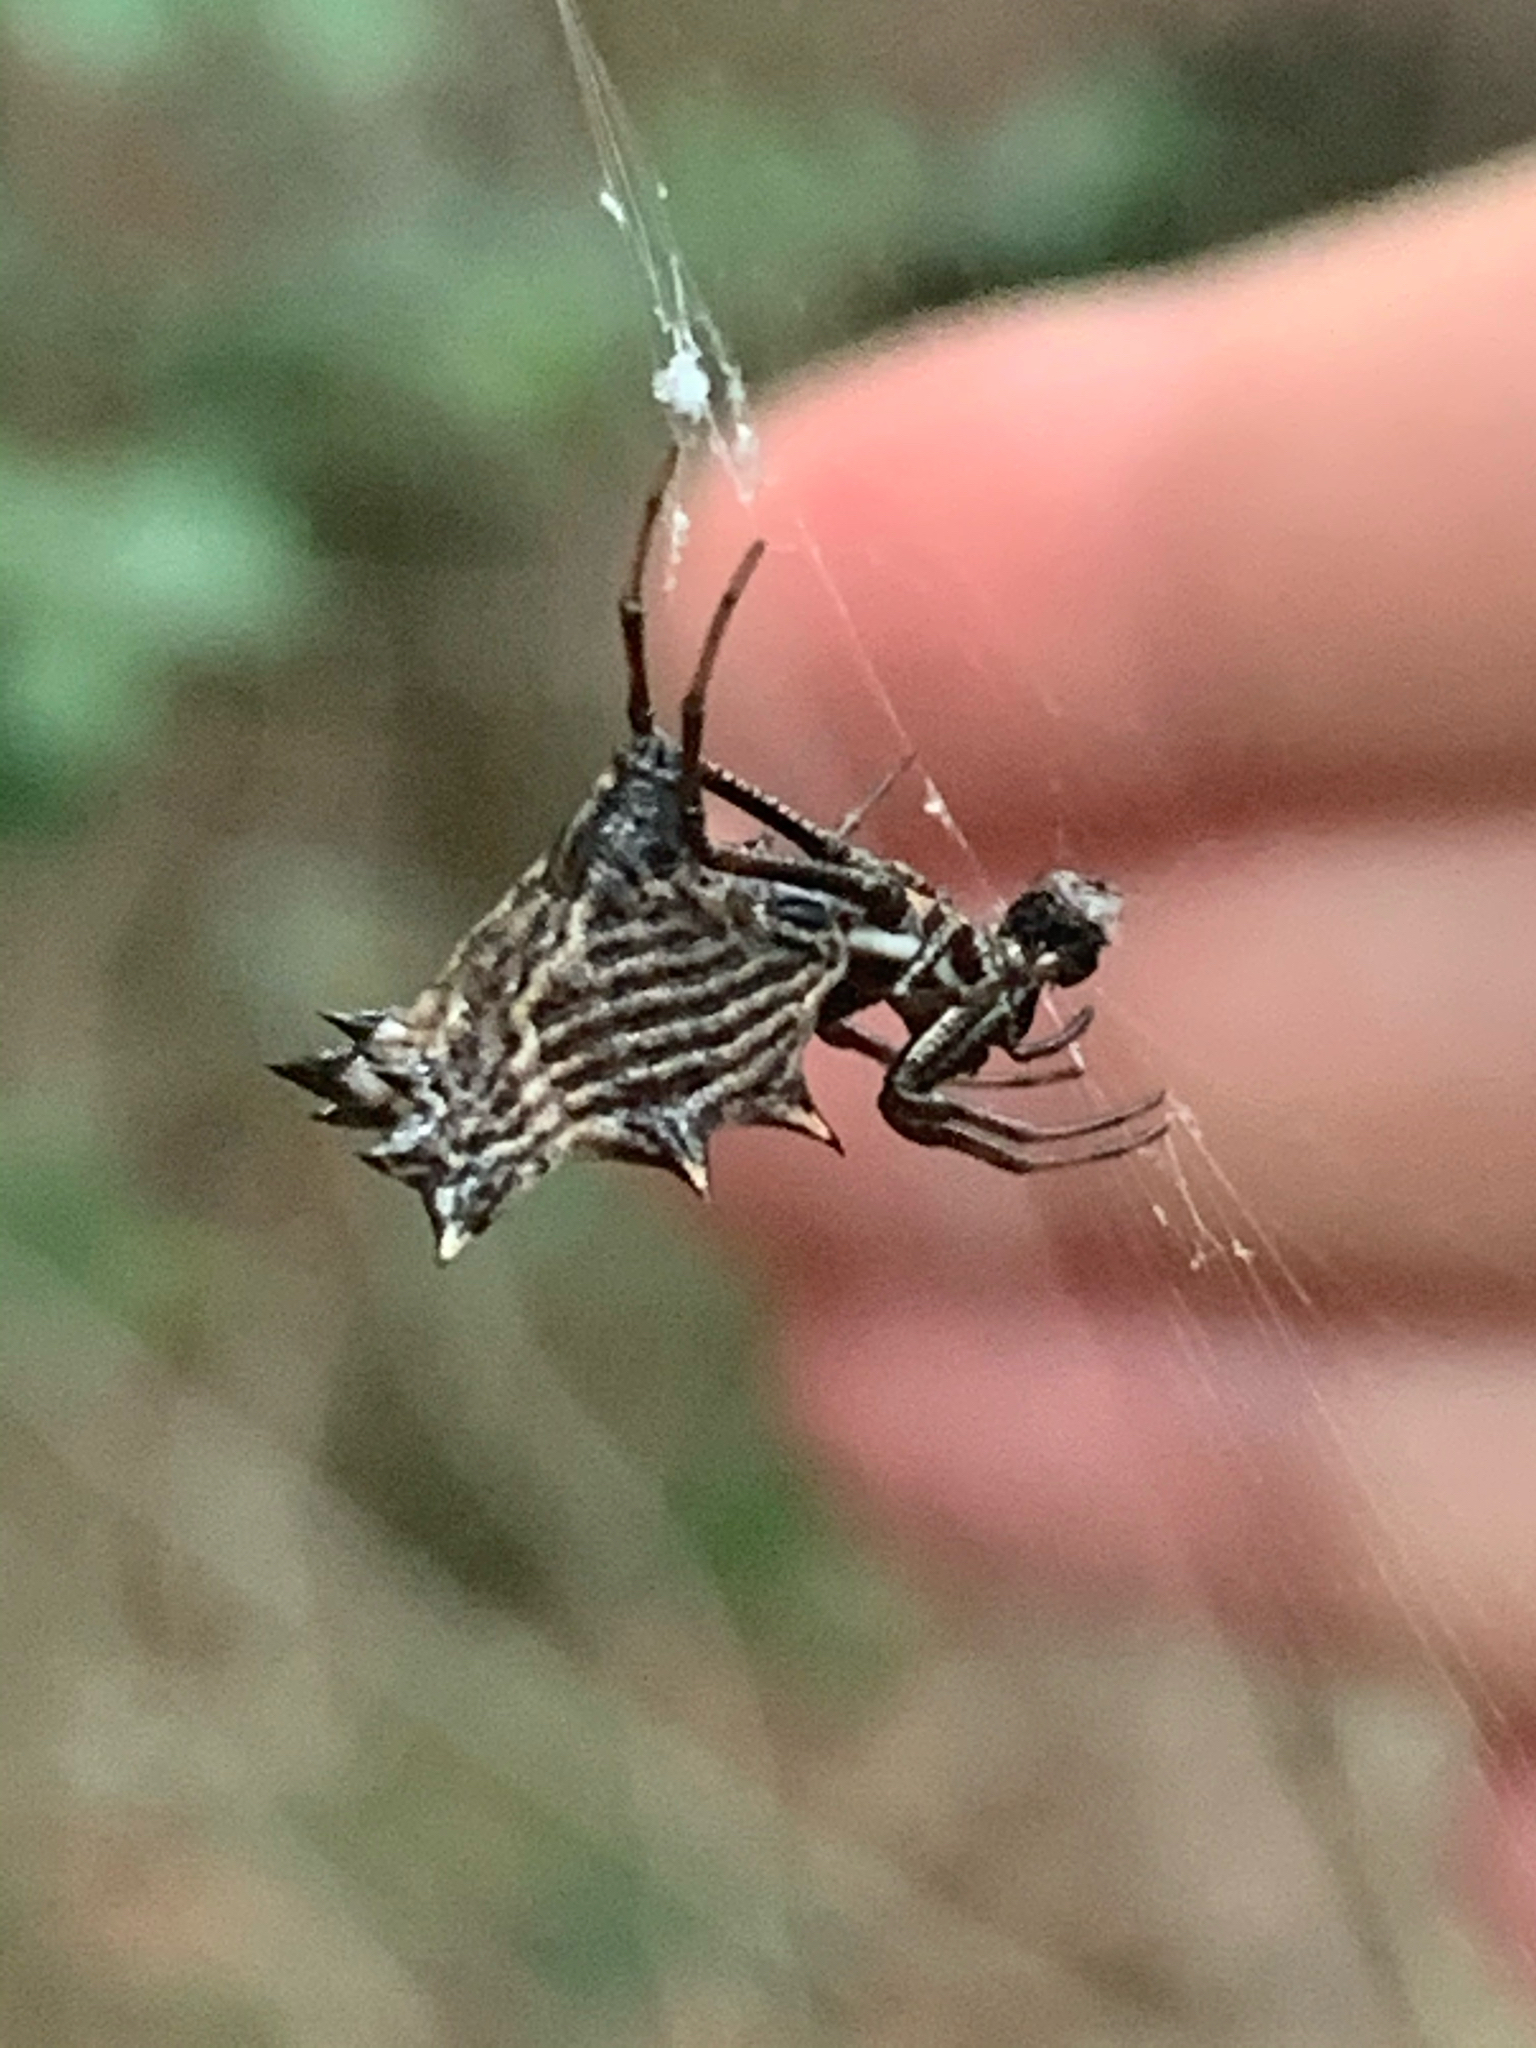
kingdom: Animalia
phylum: Arthropoda
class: Arachnida
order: Araneae
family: Araneidae
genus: Micrathena
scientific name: Micrathena gracilis
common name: Orb weavers
